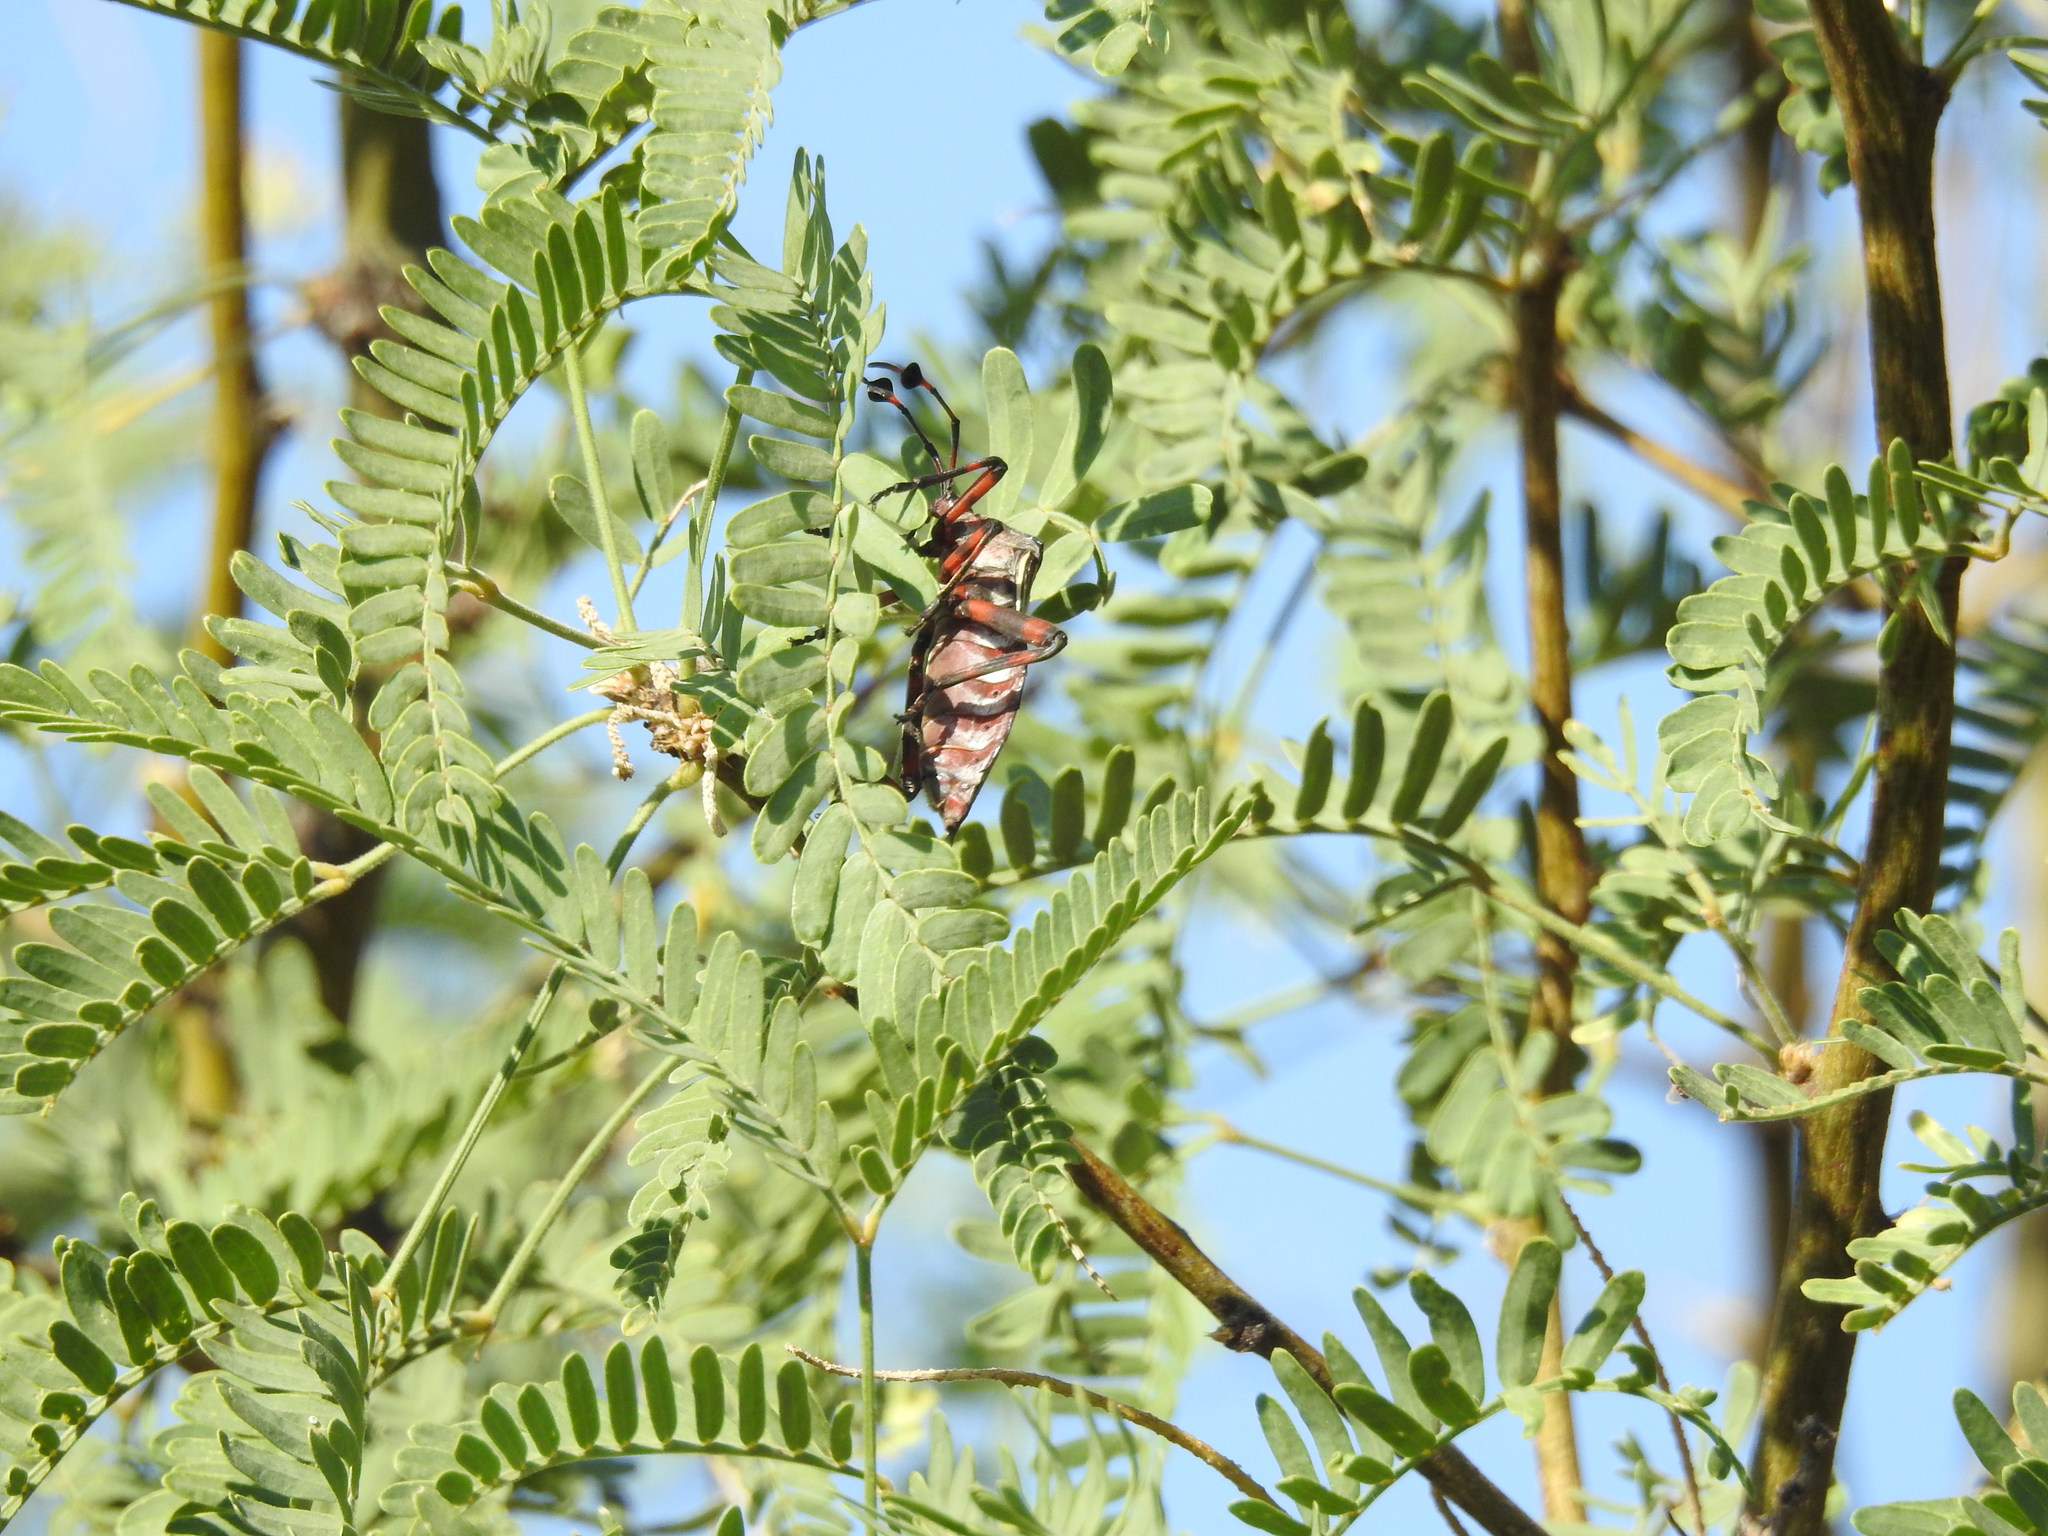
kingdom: Animalia
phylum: Arthropoda
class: Insecta
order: Hemiptera
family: Coreidae
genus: Thasus
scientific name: Thasus neocalifornicus
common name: Giant mesquite bug
